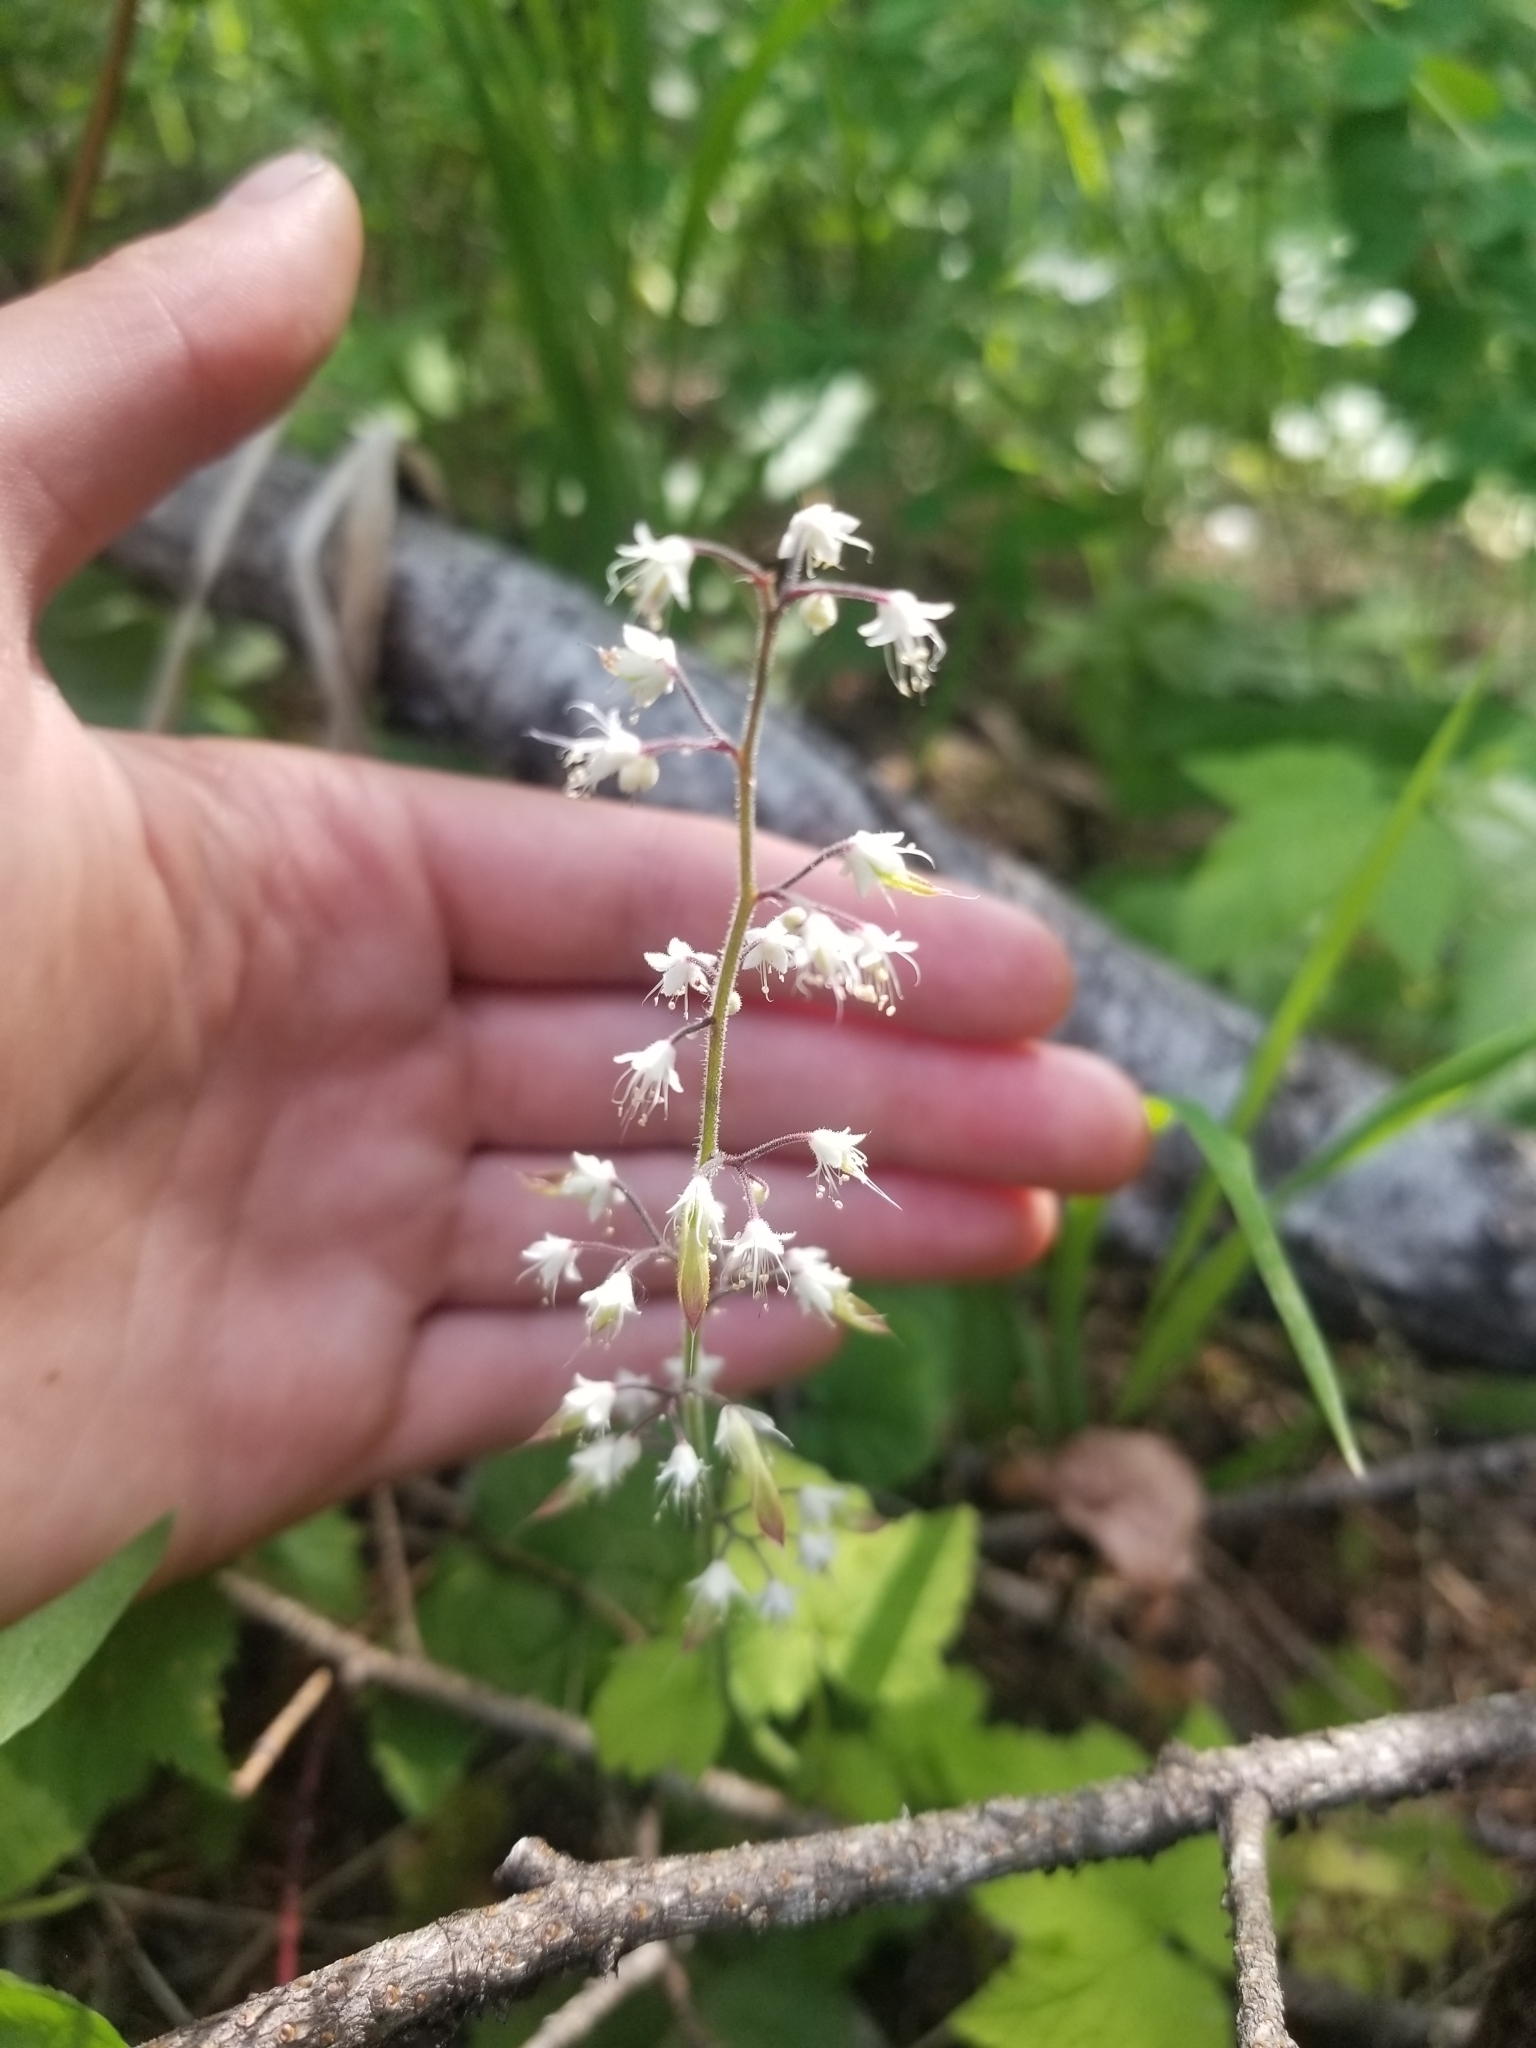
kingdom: Plantae
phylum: Tracheophyta
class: Magnoliopsida
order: Saxifragales
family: Saxifragaceae
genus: Tiarella
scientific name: Tiarella trifoliata
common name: Sugar-scoop
